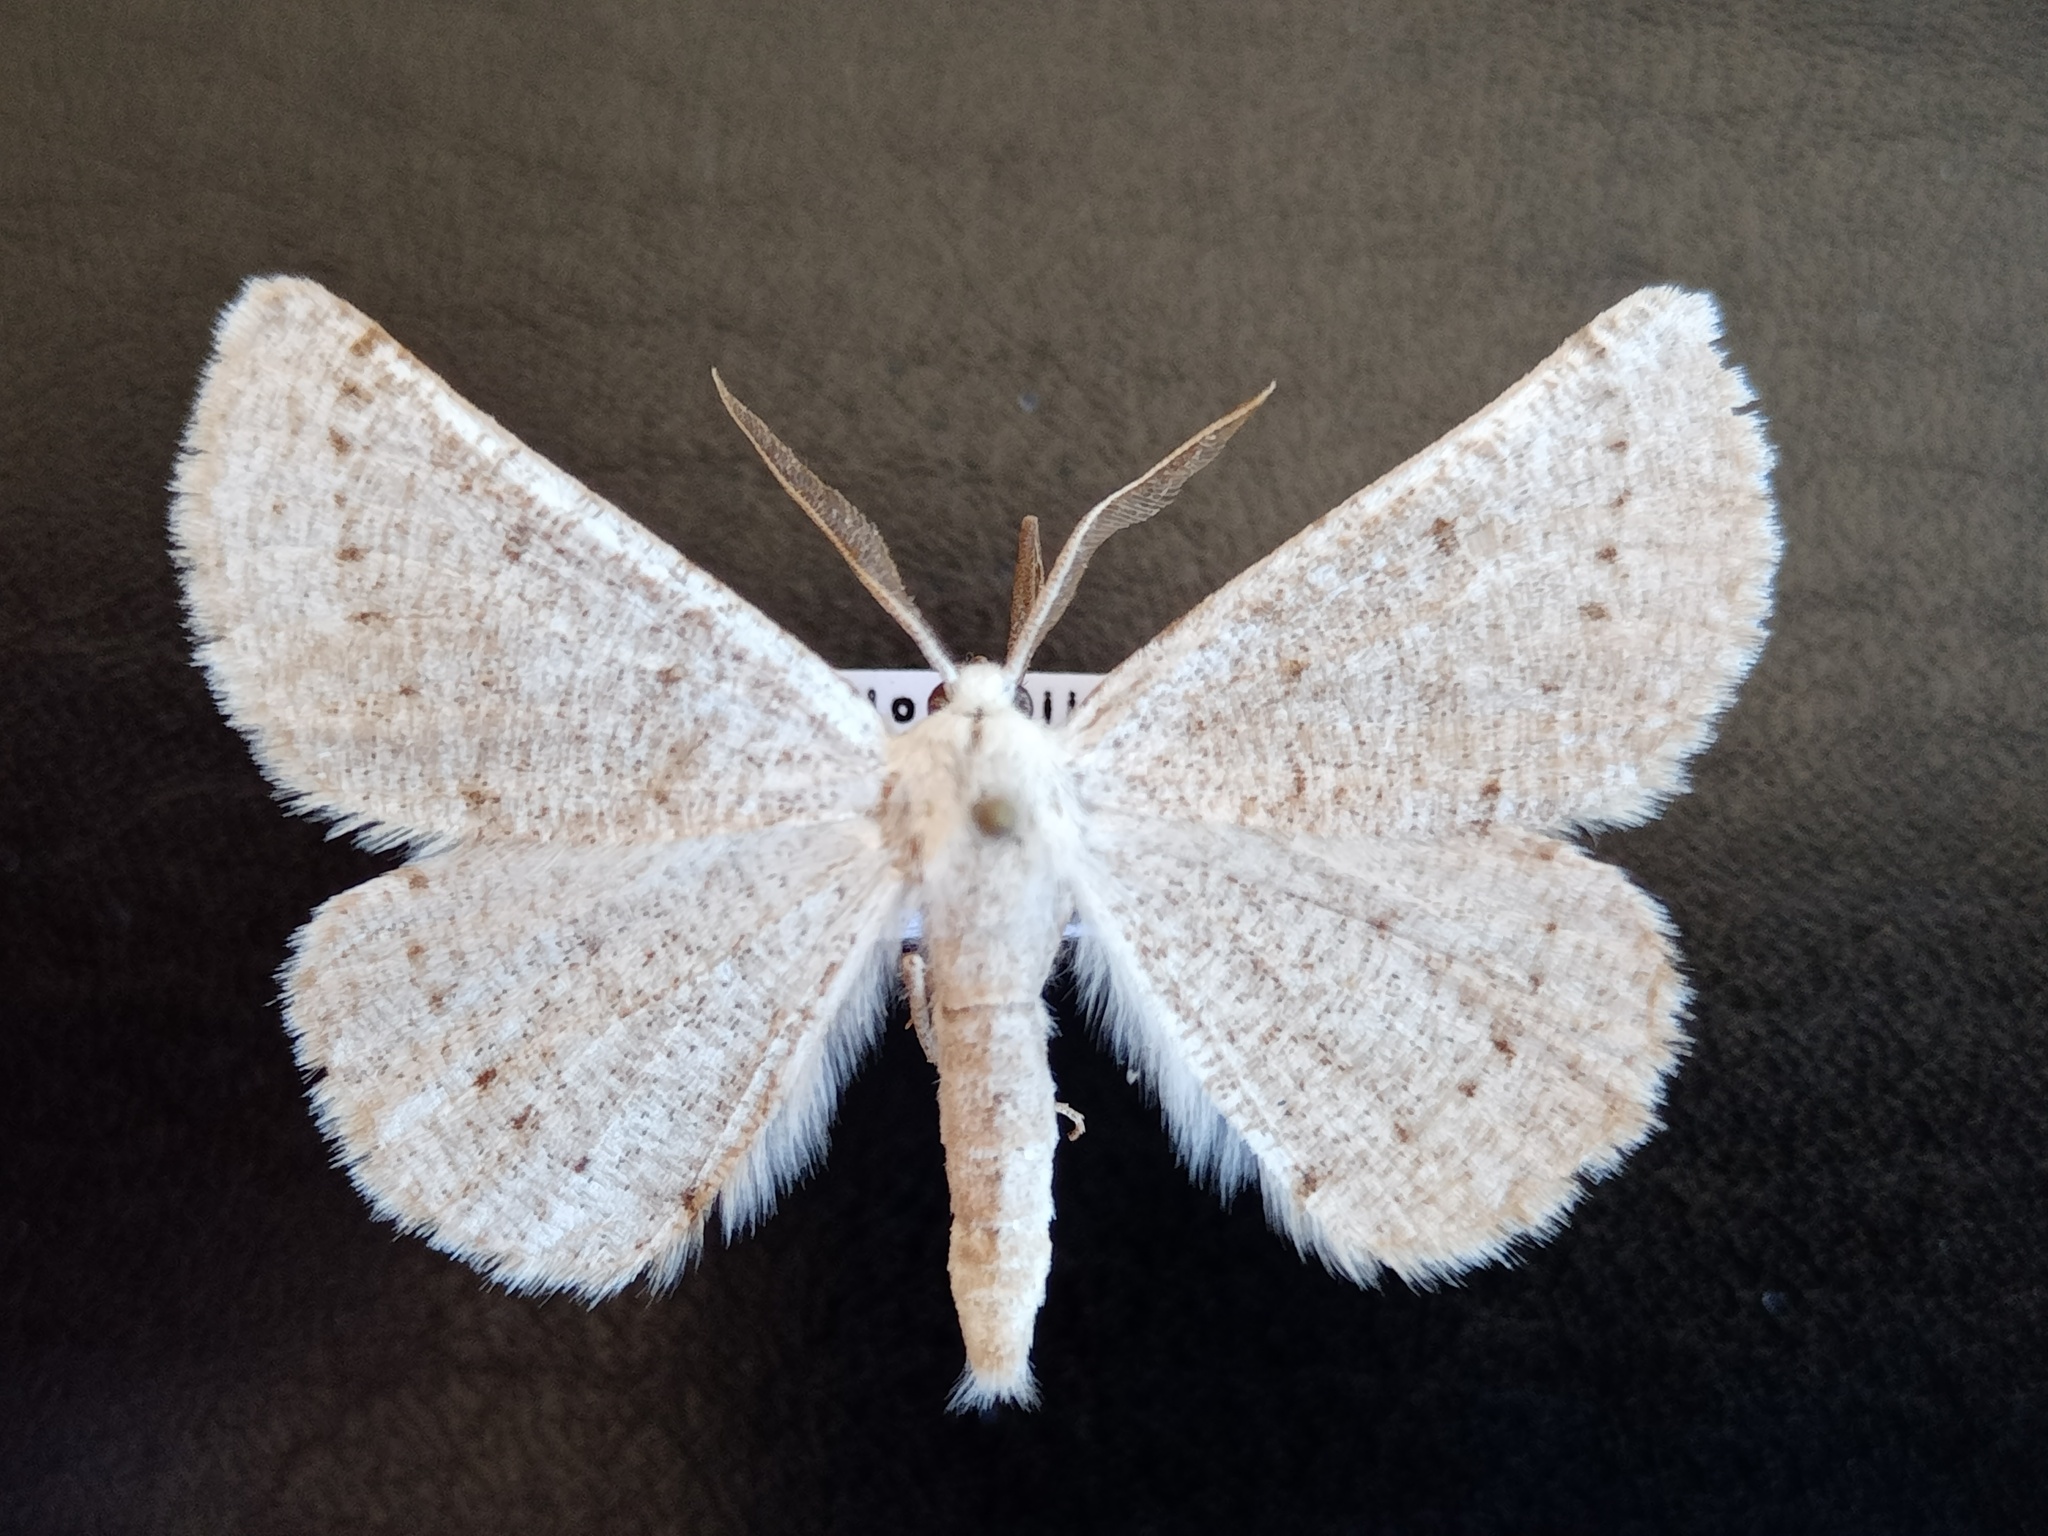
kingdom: Animalia
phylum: Arthropoda
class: Insecta
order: Lepidoptera
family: Geometridae
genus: Dyscia
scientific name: Dyscia raunaria
